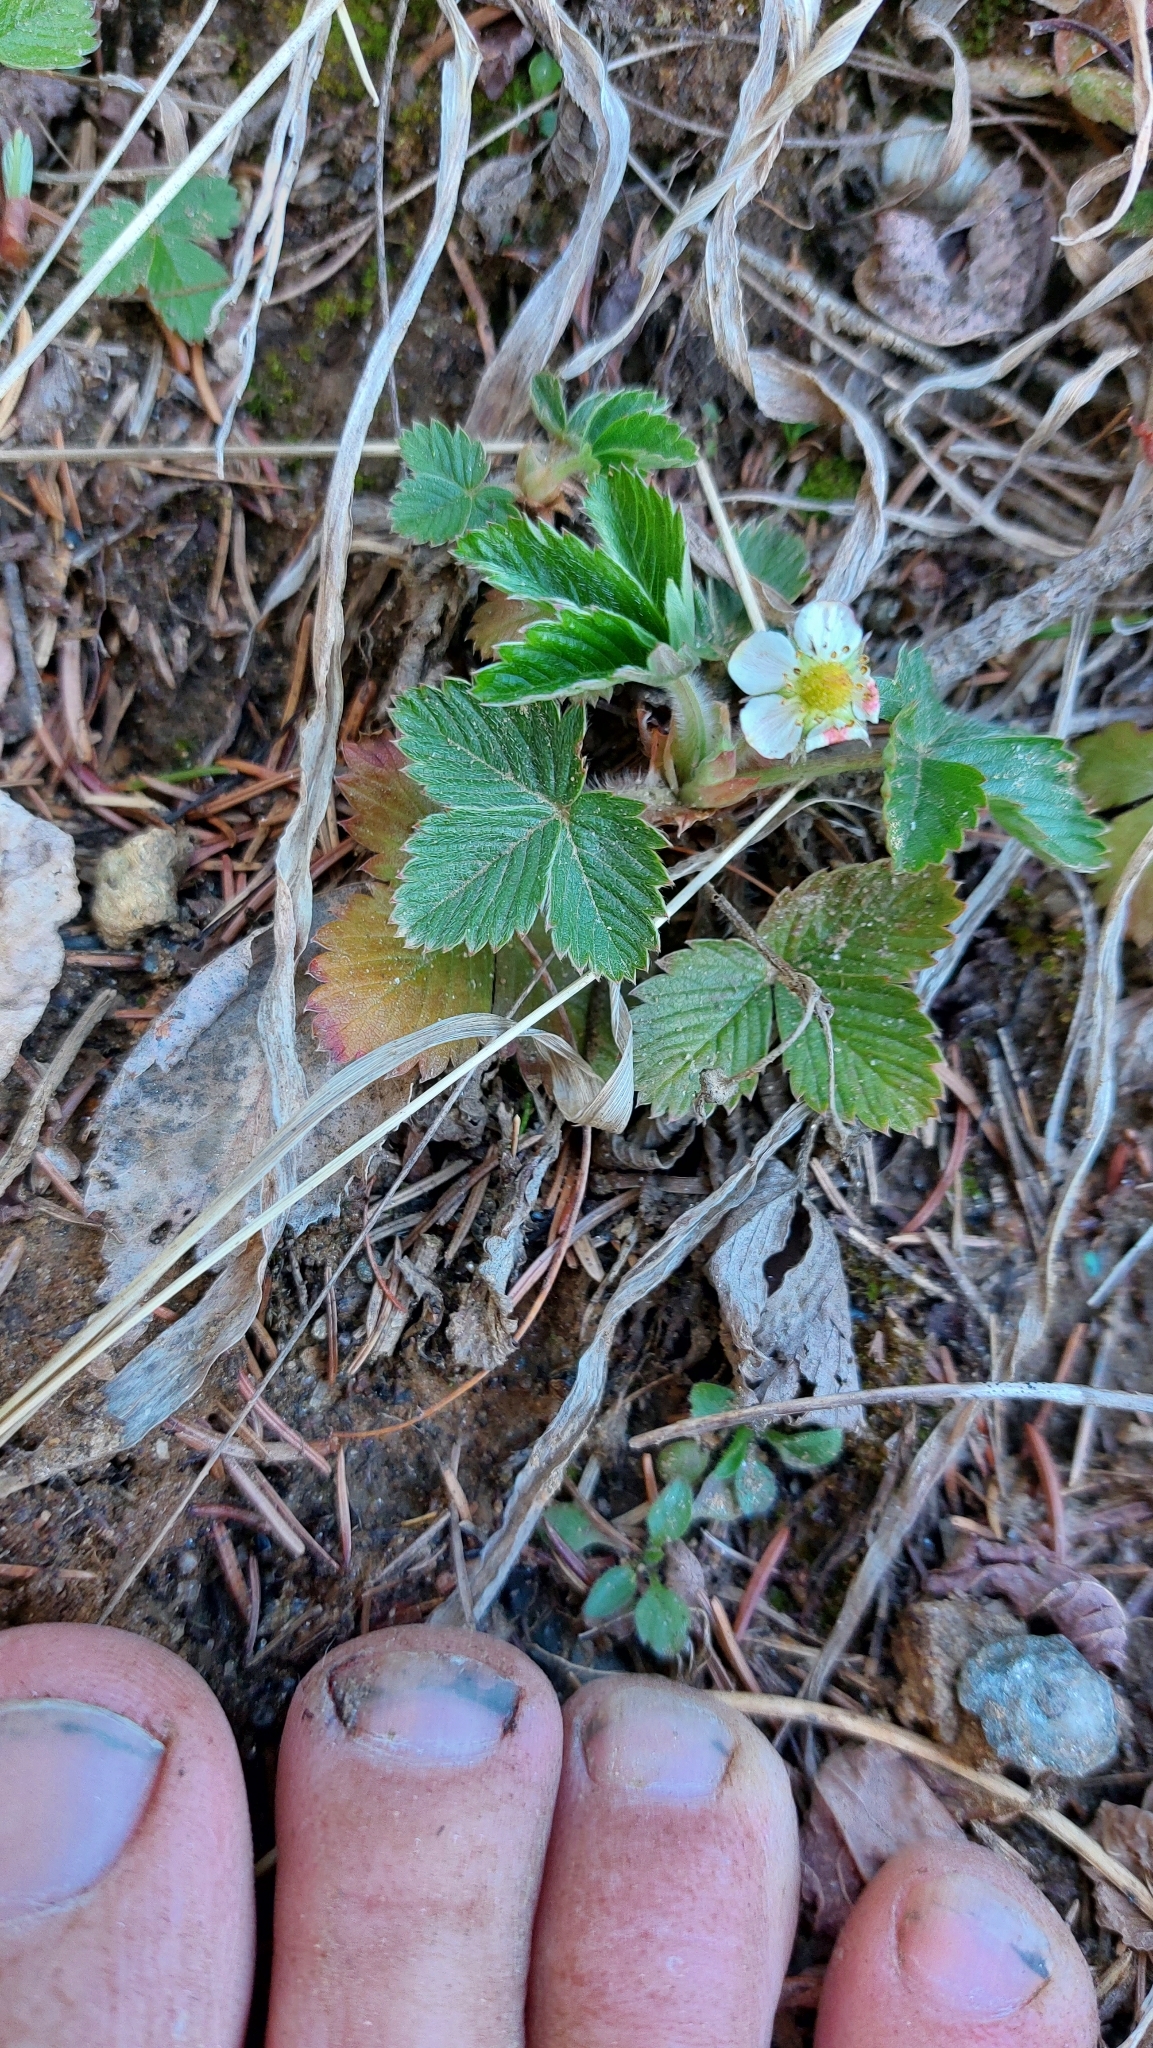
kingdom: Plantae
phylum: Tracheophyta
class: Magnoliopsida
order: Rosales
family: Rosaceae
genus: Fragaria
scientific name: Fragaria vesca
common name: Wild strawberry
